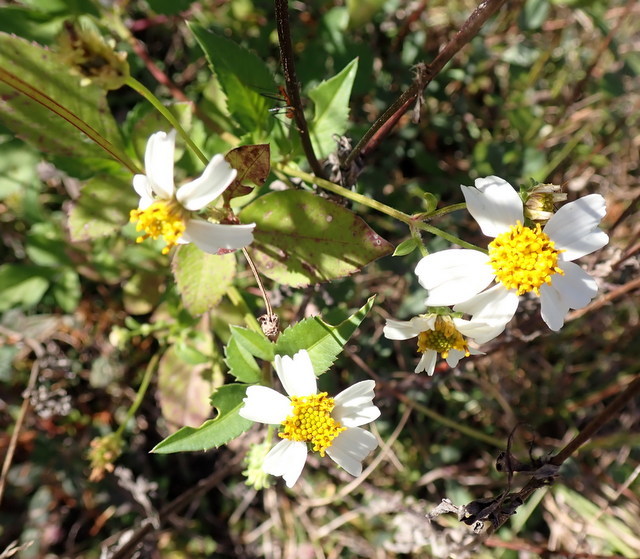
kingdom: Plantae
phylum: Tracheophyta
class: Magnoliopsida
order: Asterales
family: Asteraceae
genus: Bidens
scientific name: Bidens alba
